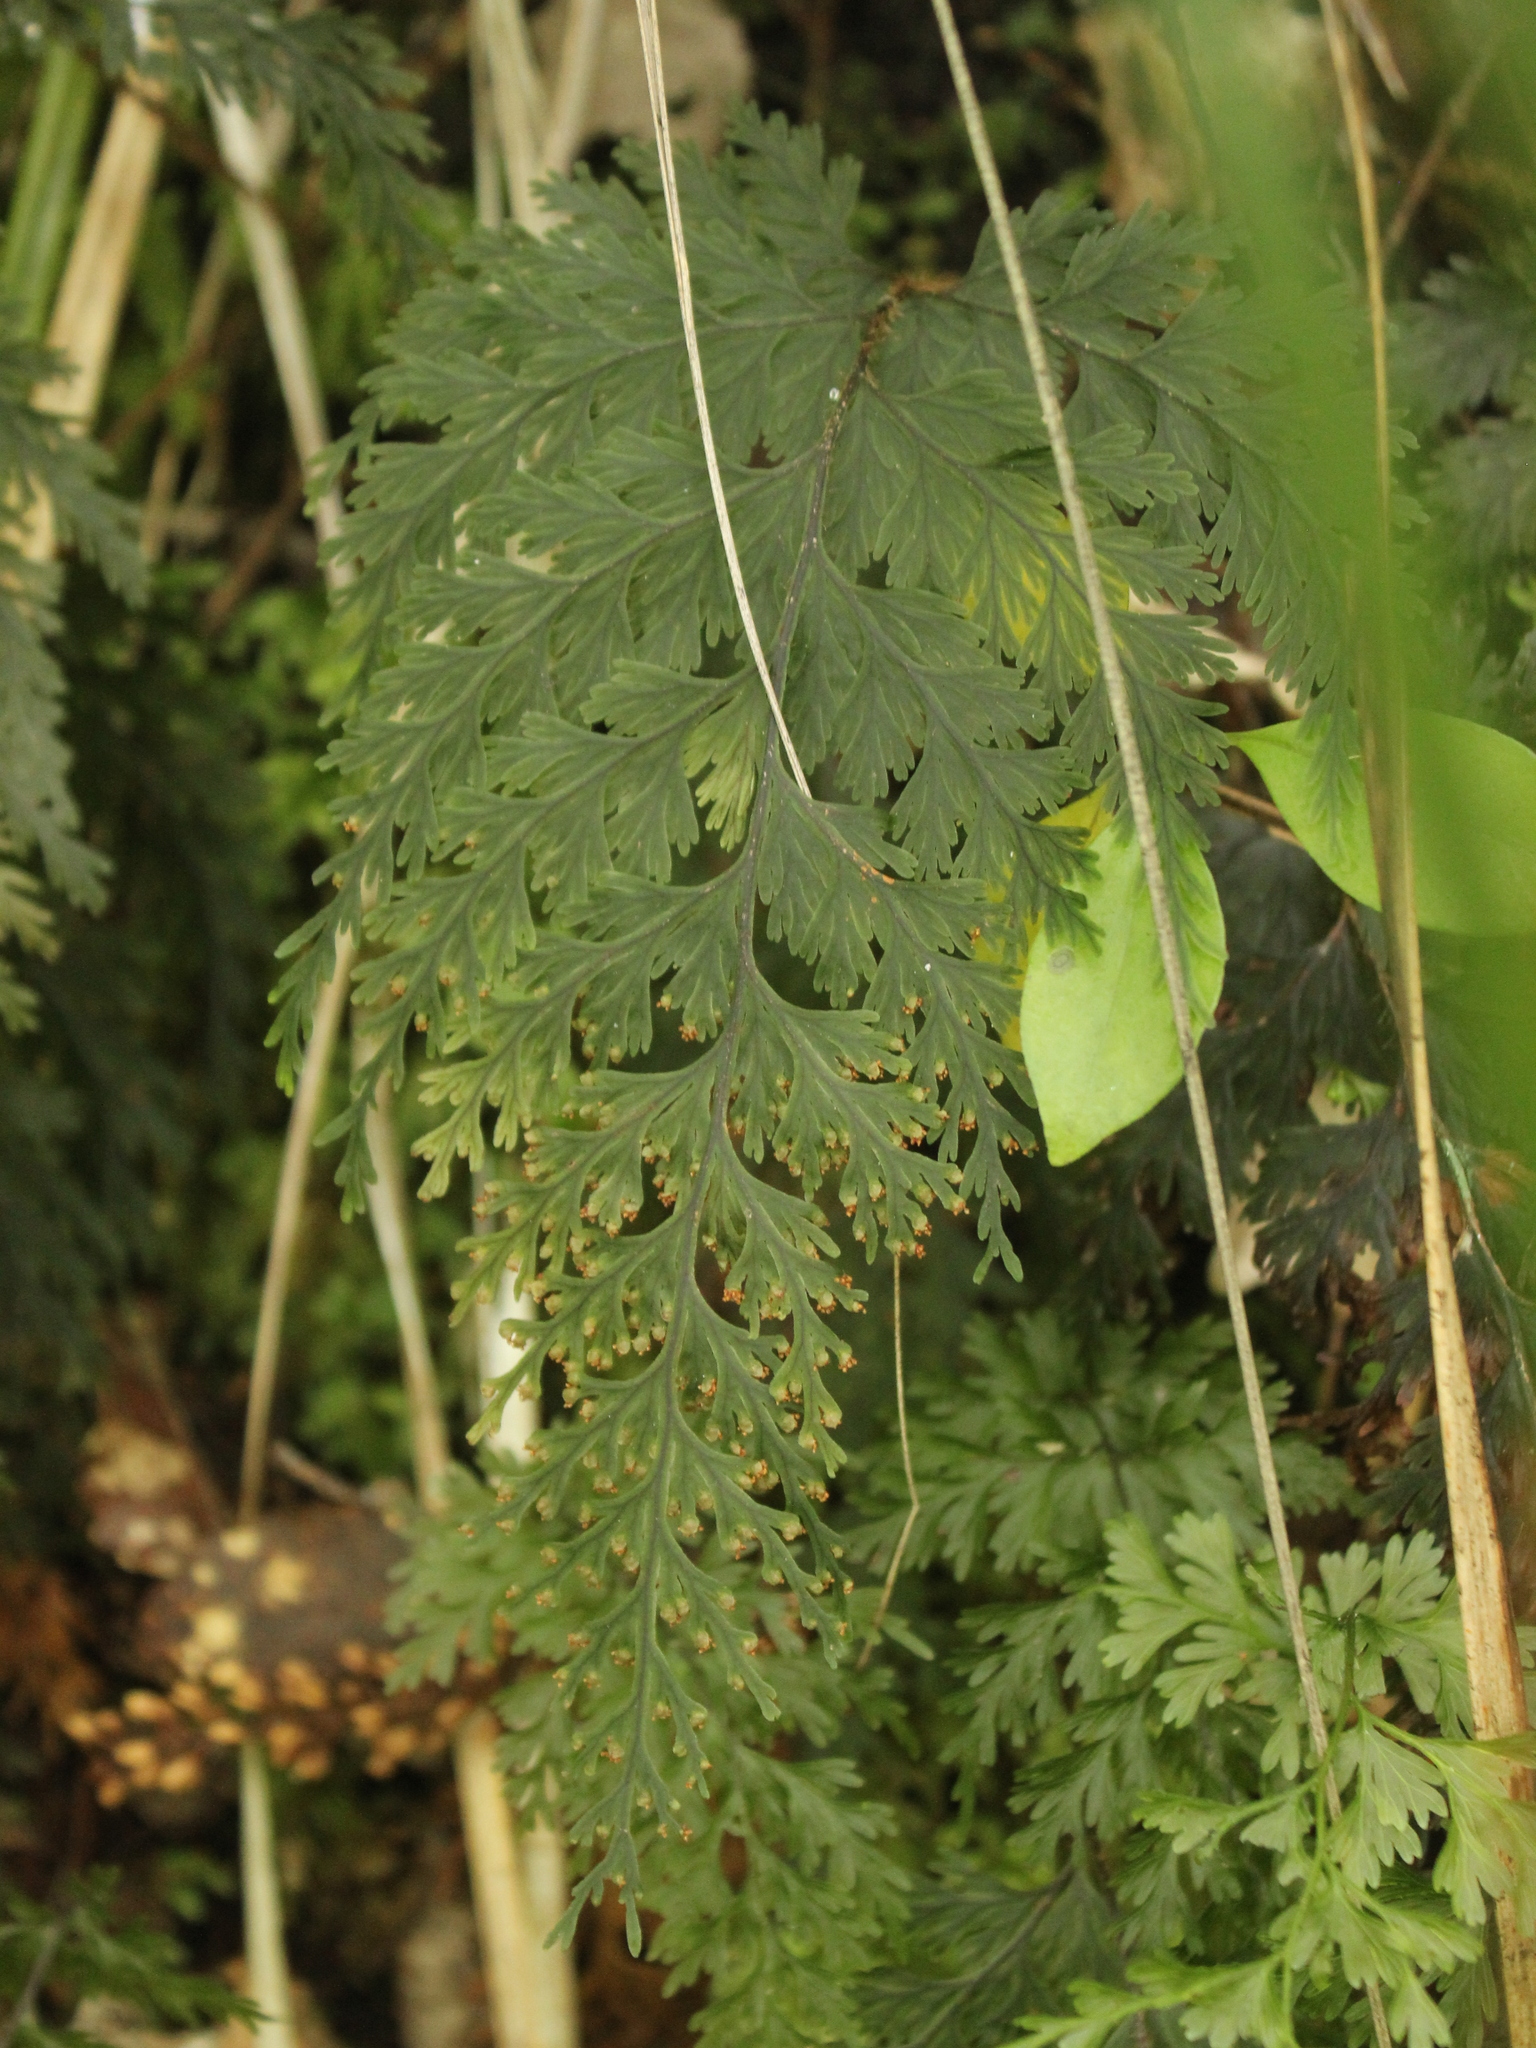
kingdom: Plantae
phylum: Tracheophyta
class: Polypodiopsida
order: Hymenophyllales
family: Hymenophyllaceae
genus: Hymenophyllum
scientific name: Hymenophyllum scabrum
